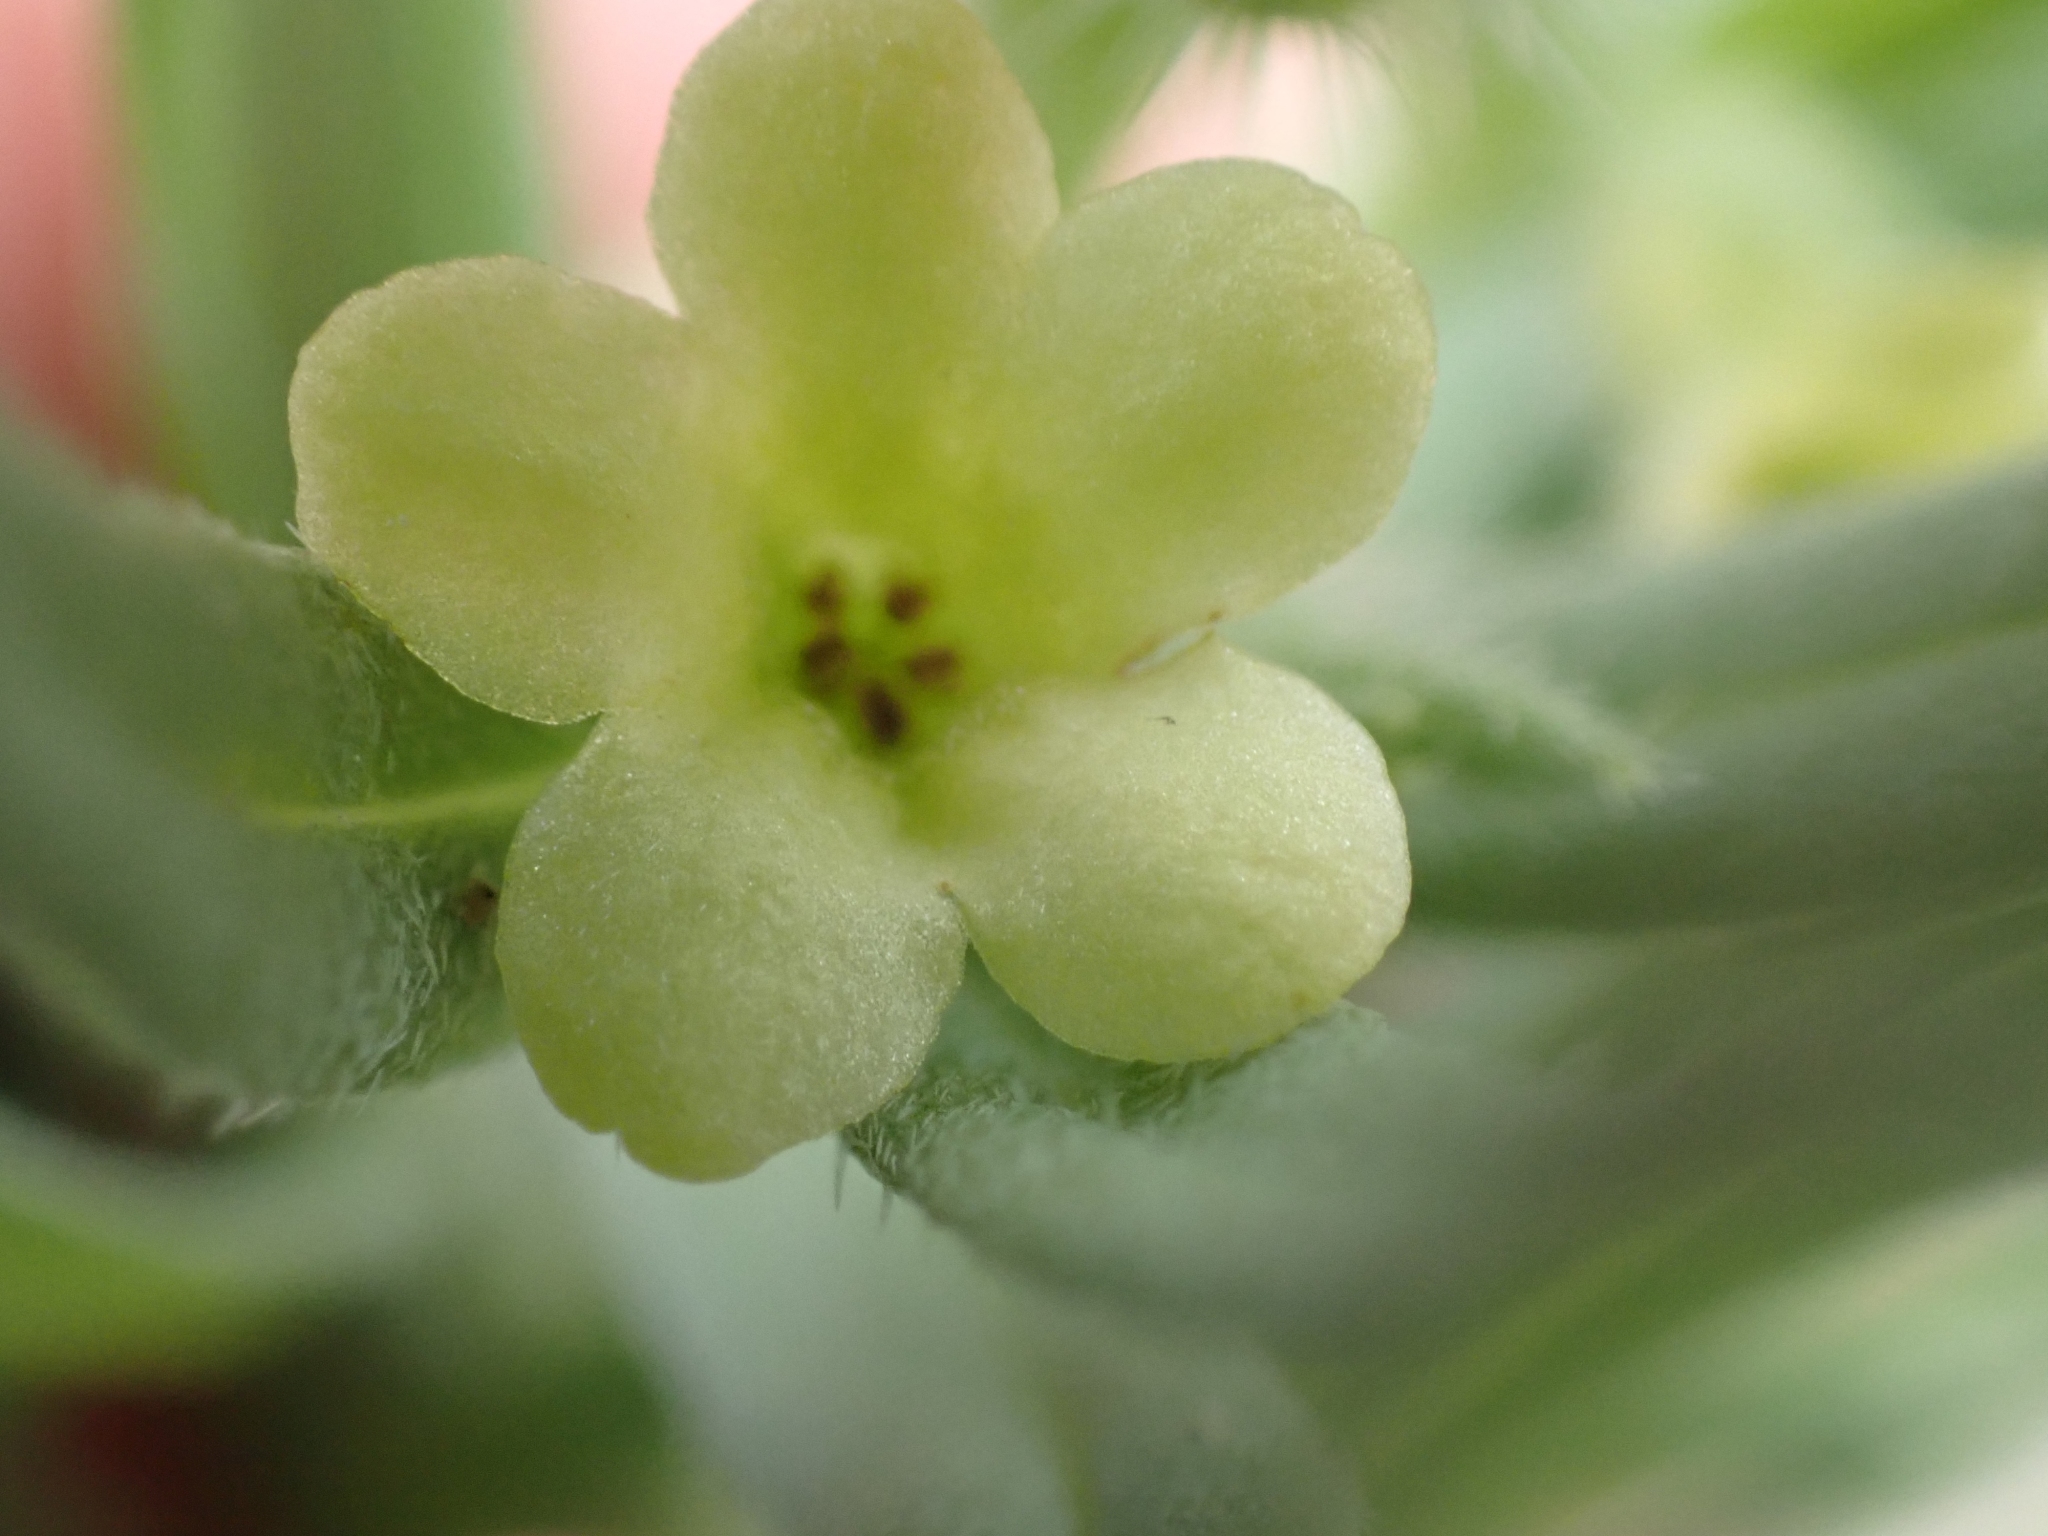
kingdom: Plantae
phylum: Tracheophyta
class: Magnoliopsida
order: Boraginales
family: Boraginaceae
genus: Lithospermum
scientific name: Lithospermum ruderale
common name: Western gromwell
